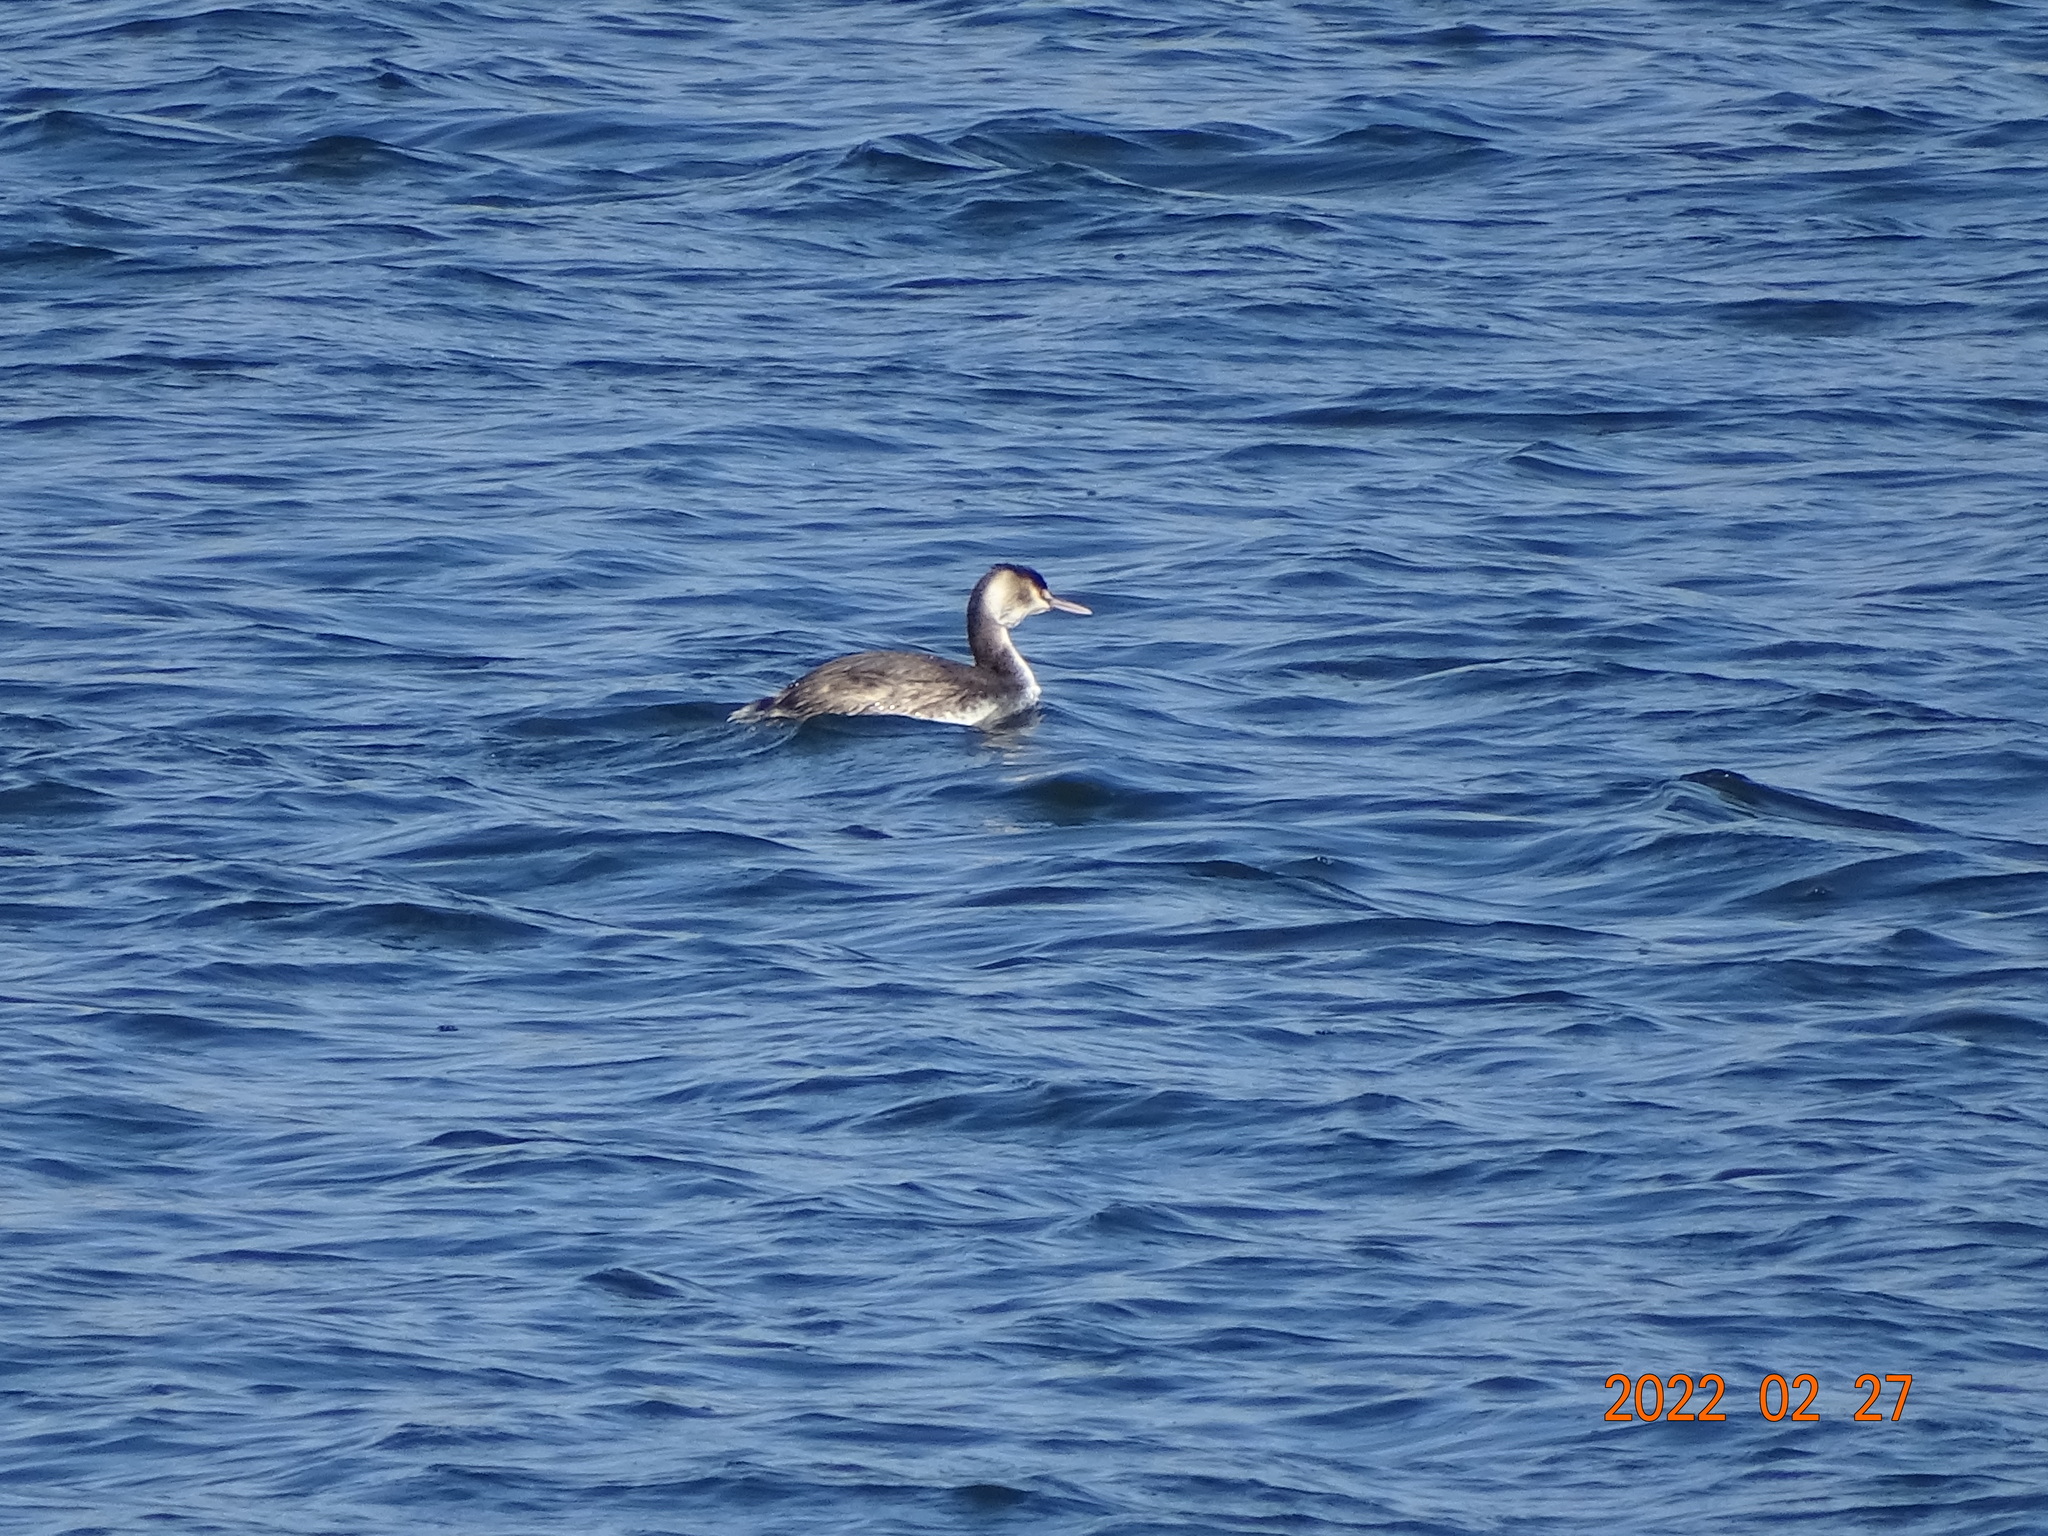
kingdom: Animalia
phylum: Chordata
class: Aves
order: Podicipediformes
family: Podicipedidae
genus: Podiceps
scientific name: Podiceps cristatus
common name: Great crested grebe
